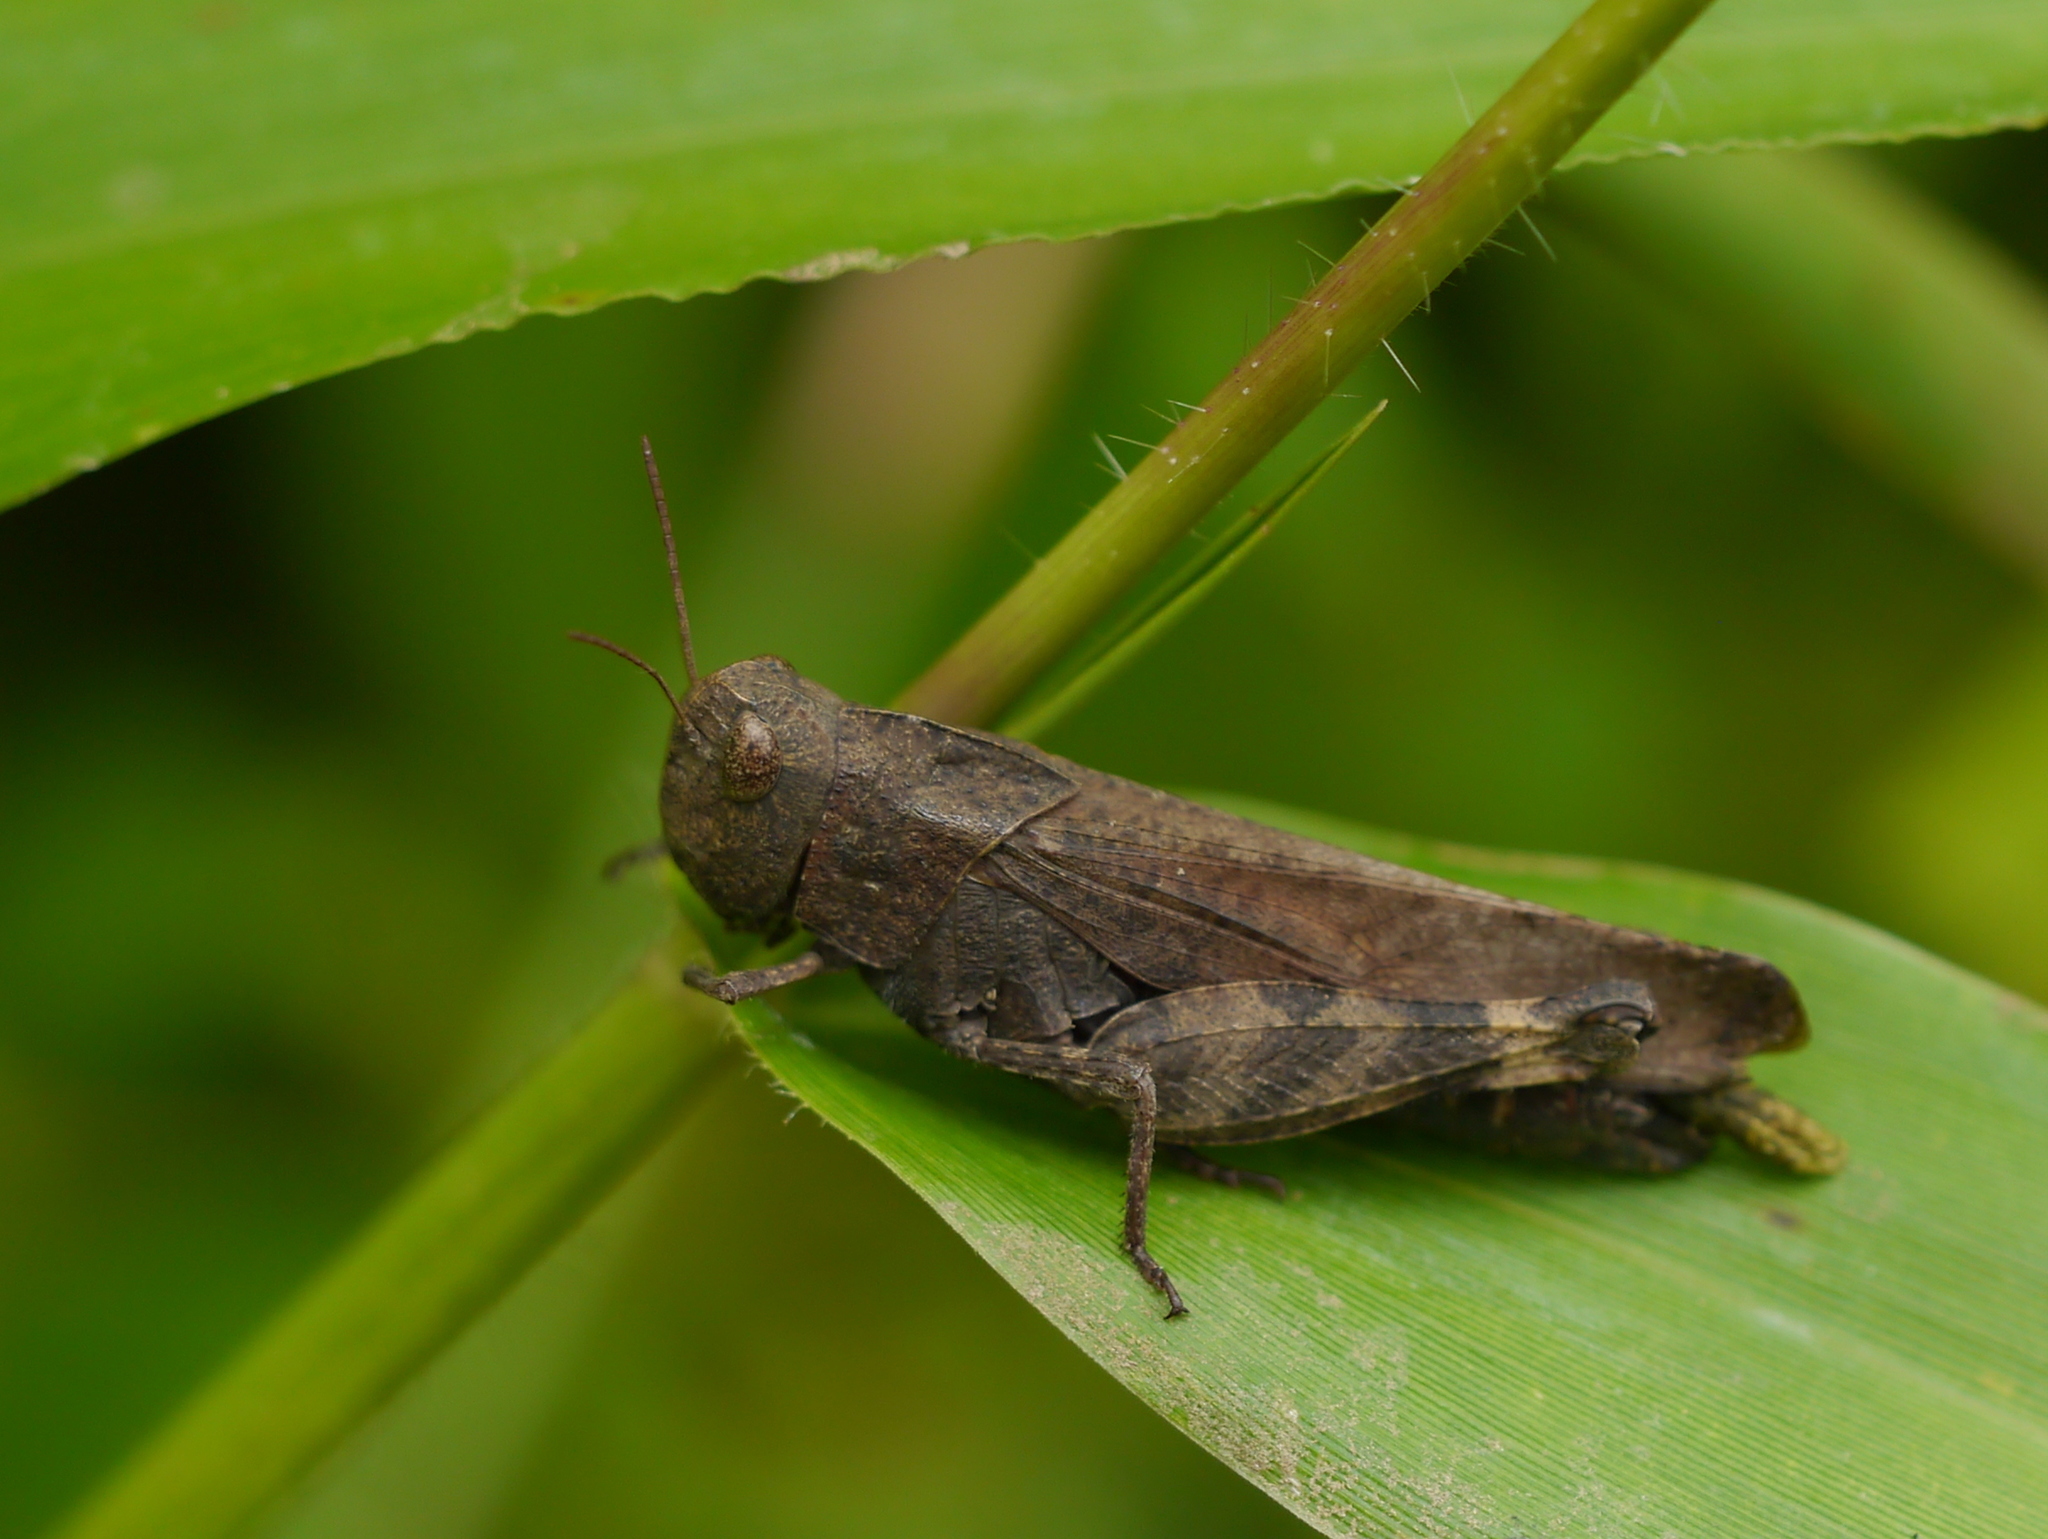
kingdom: Animalia
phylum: Arthropoda
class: Insecta
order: Orthoptera
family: Acrididae
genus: Arphia
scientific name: Arphia sulphurea
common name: Spring yellow-winged locust
